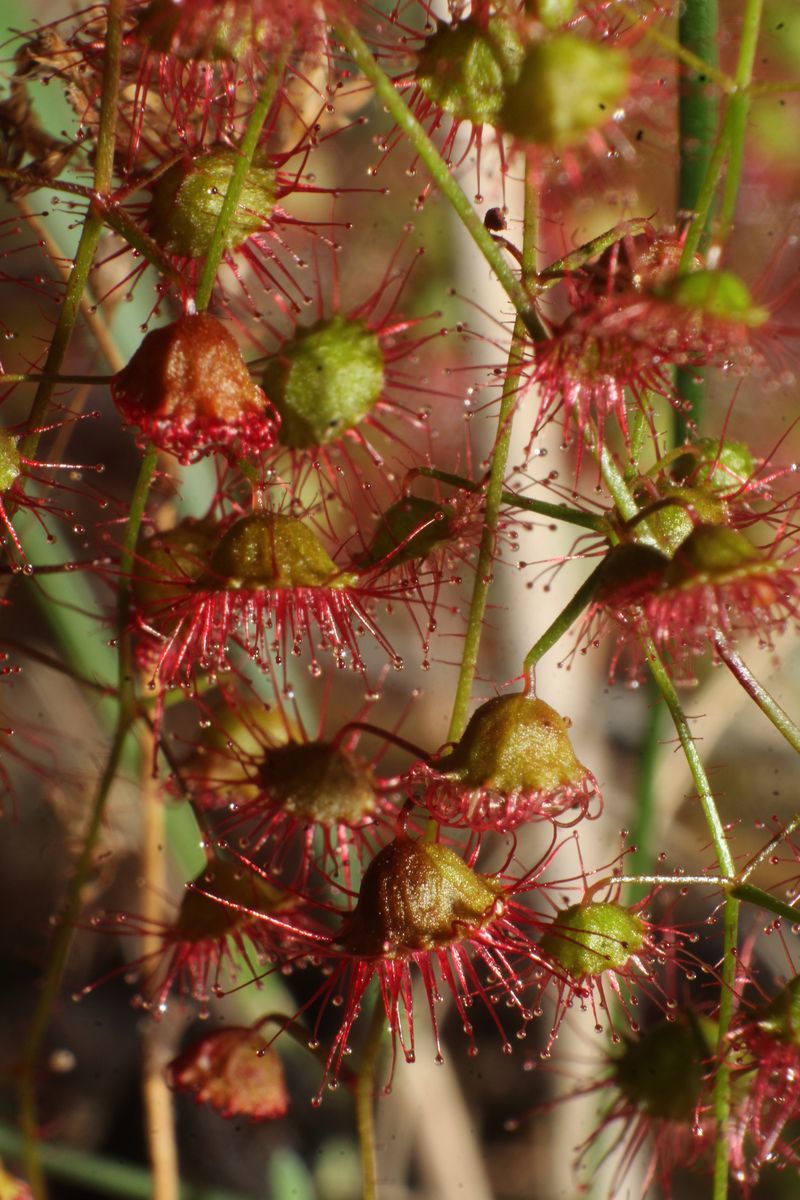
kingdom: Plantae
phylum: Tracheophyta
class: Magnoliopsida
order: Caryophyllales
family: Droseraceae
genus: Drosera
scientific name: Drosera macrantha
